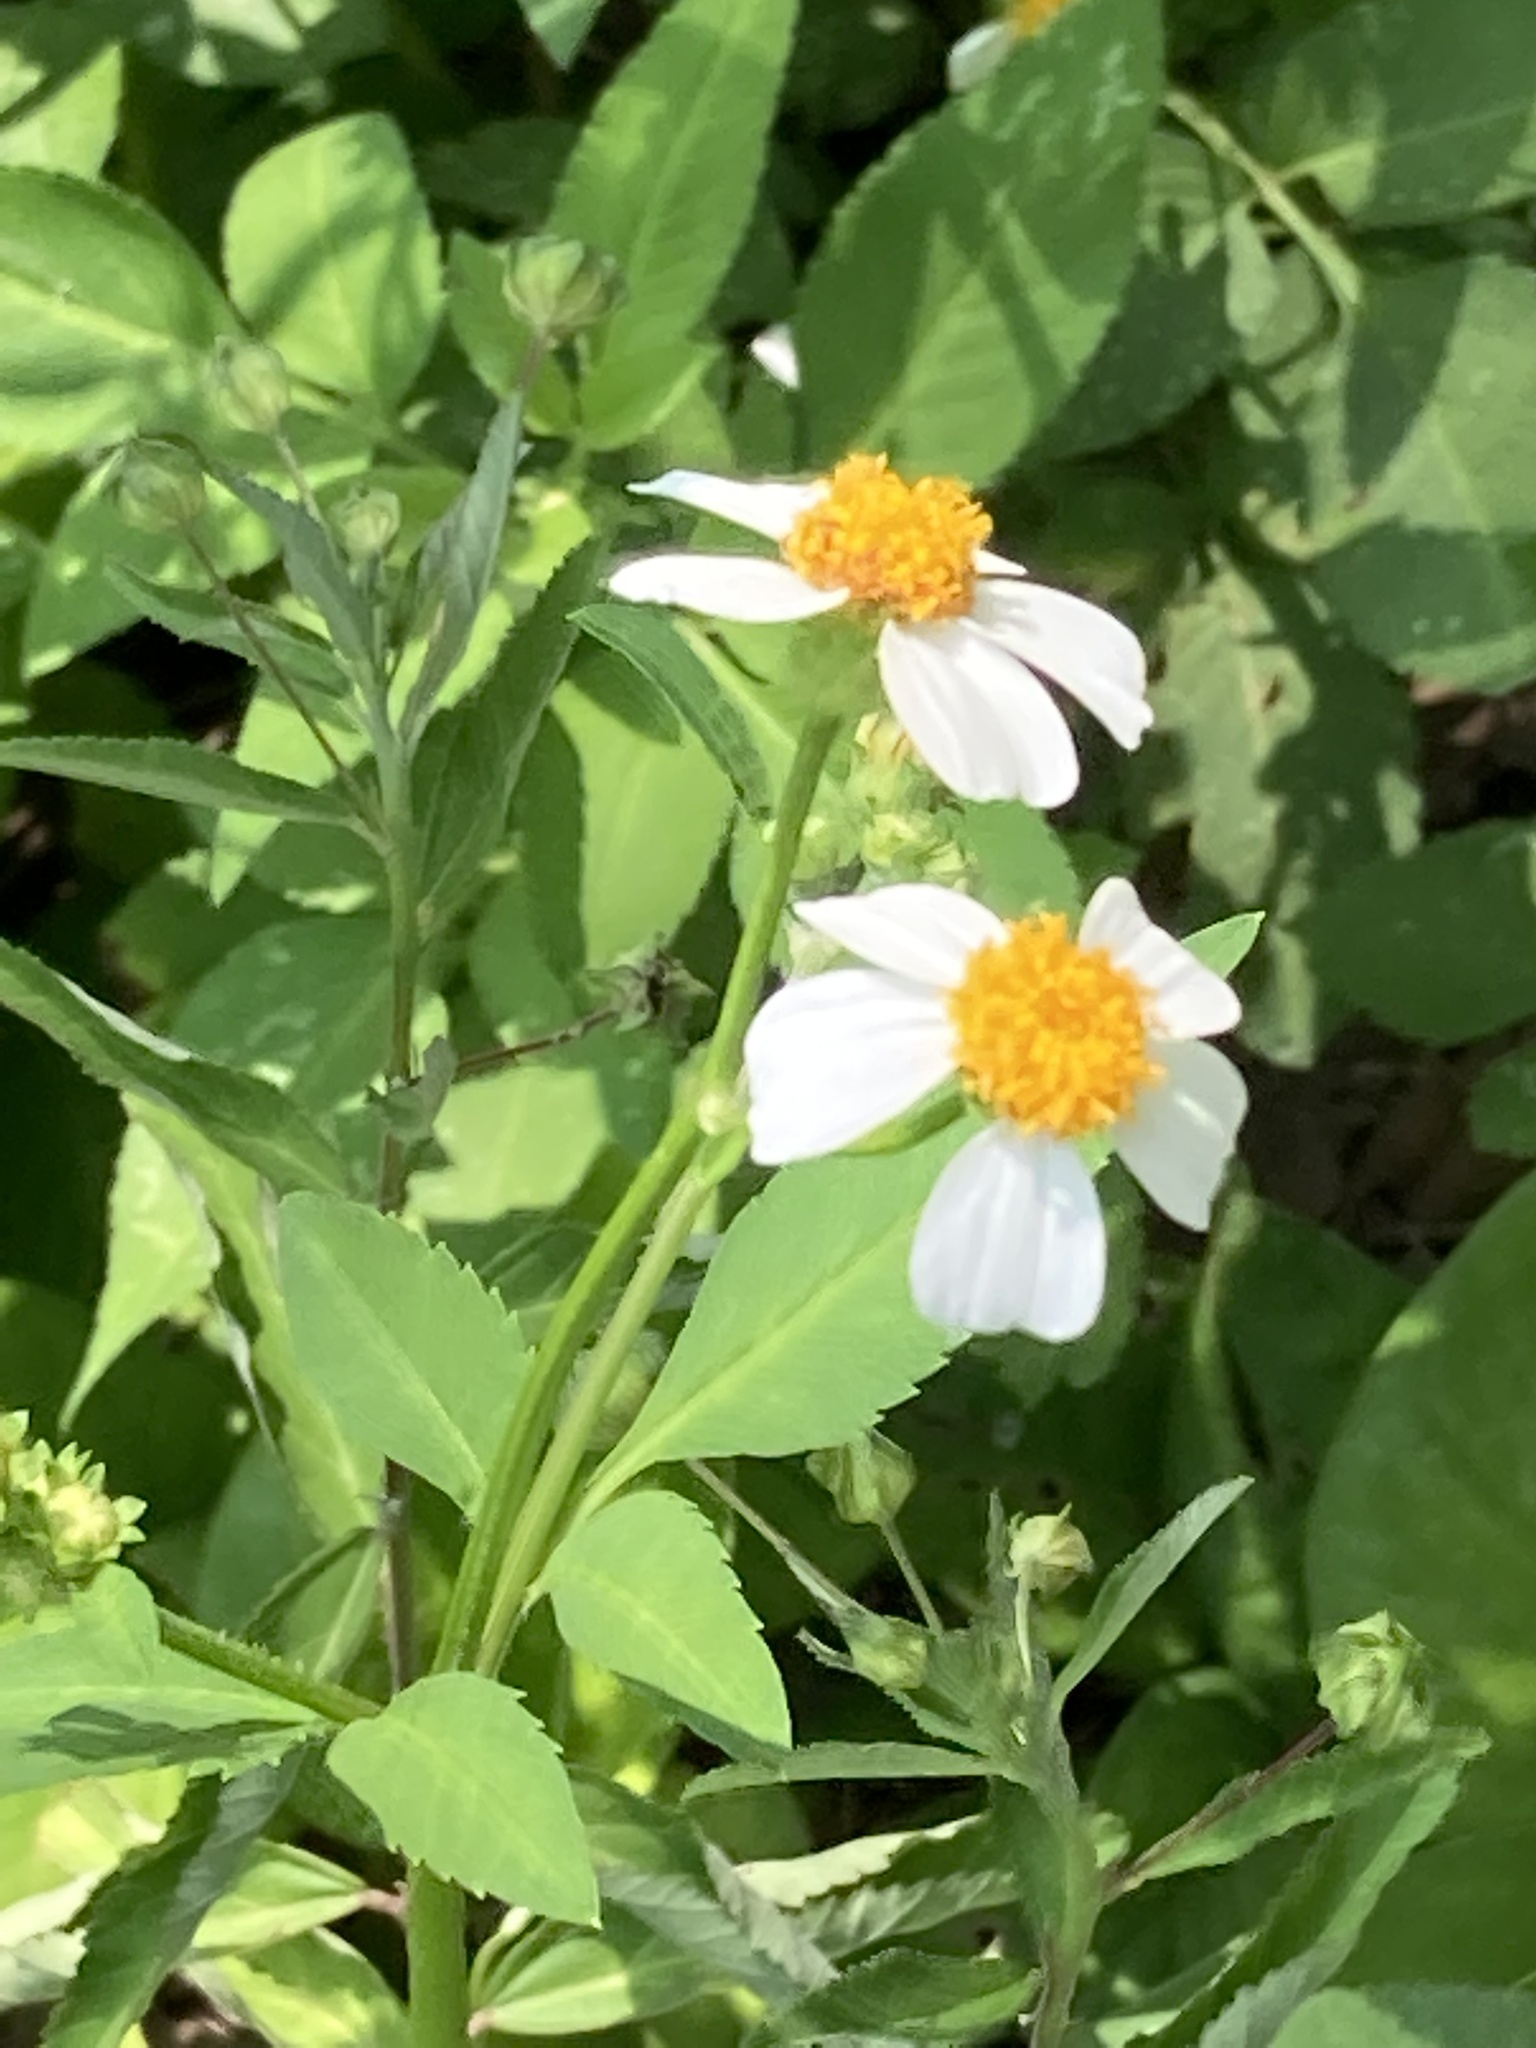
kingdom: Plantae
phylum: Tracheophyta
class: Magnoliopsida
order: Asterales
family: Asteraceae
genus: Bidens
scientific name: Bidens alba
